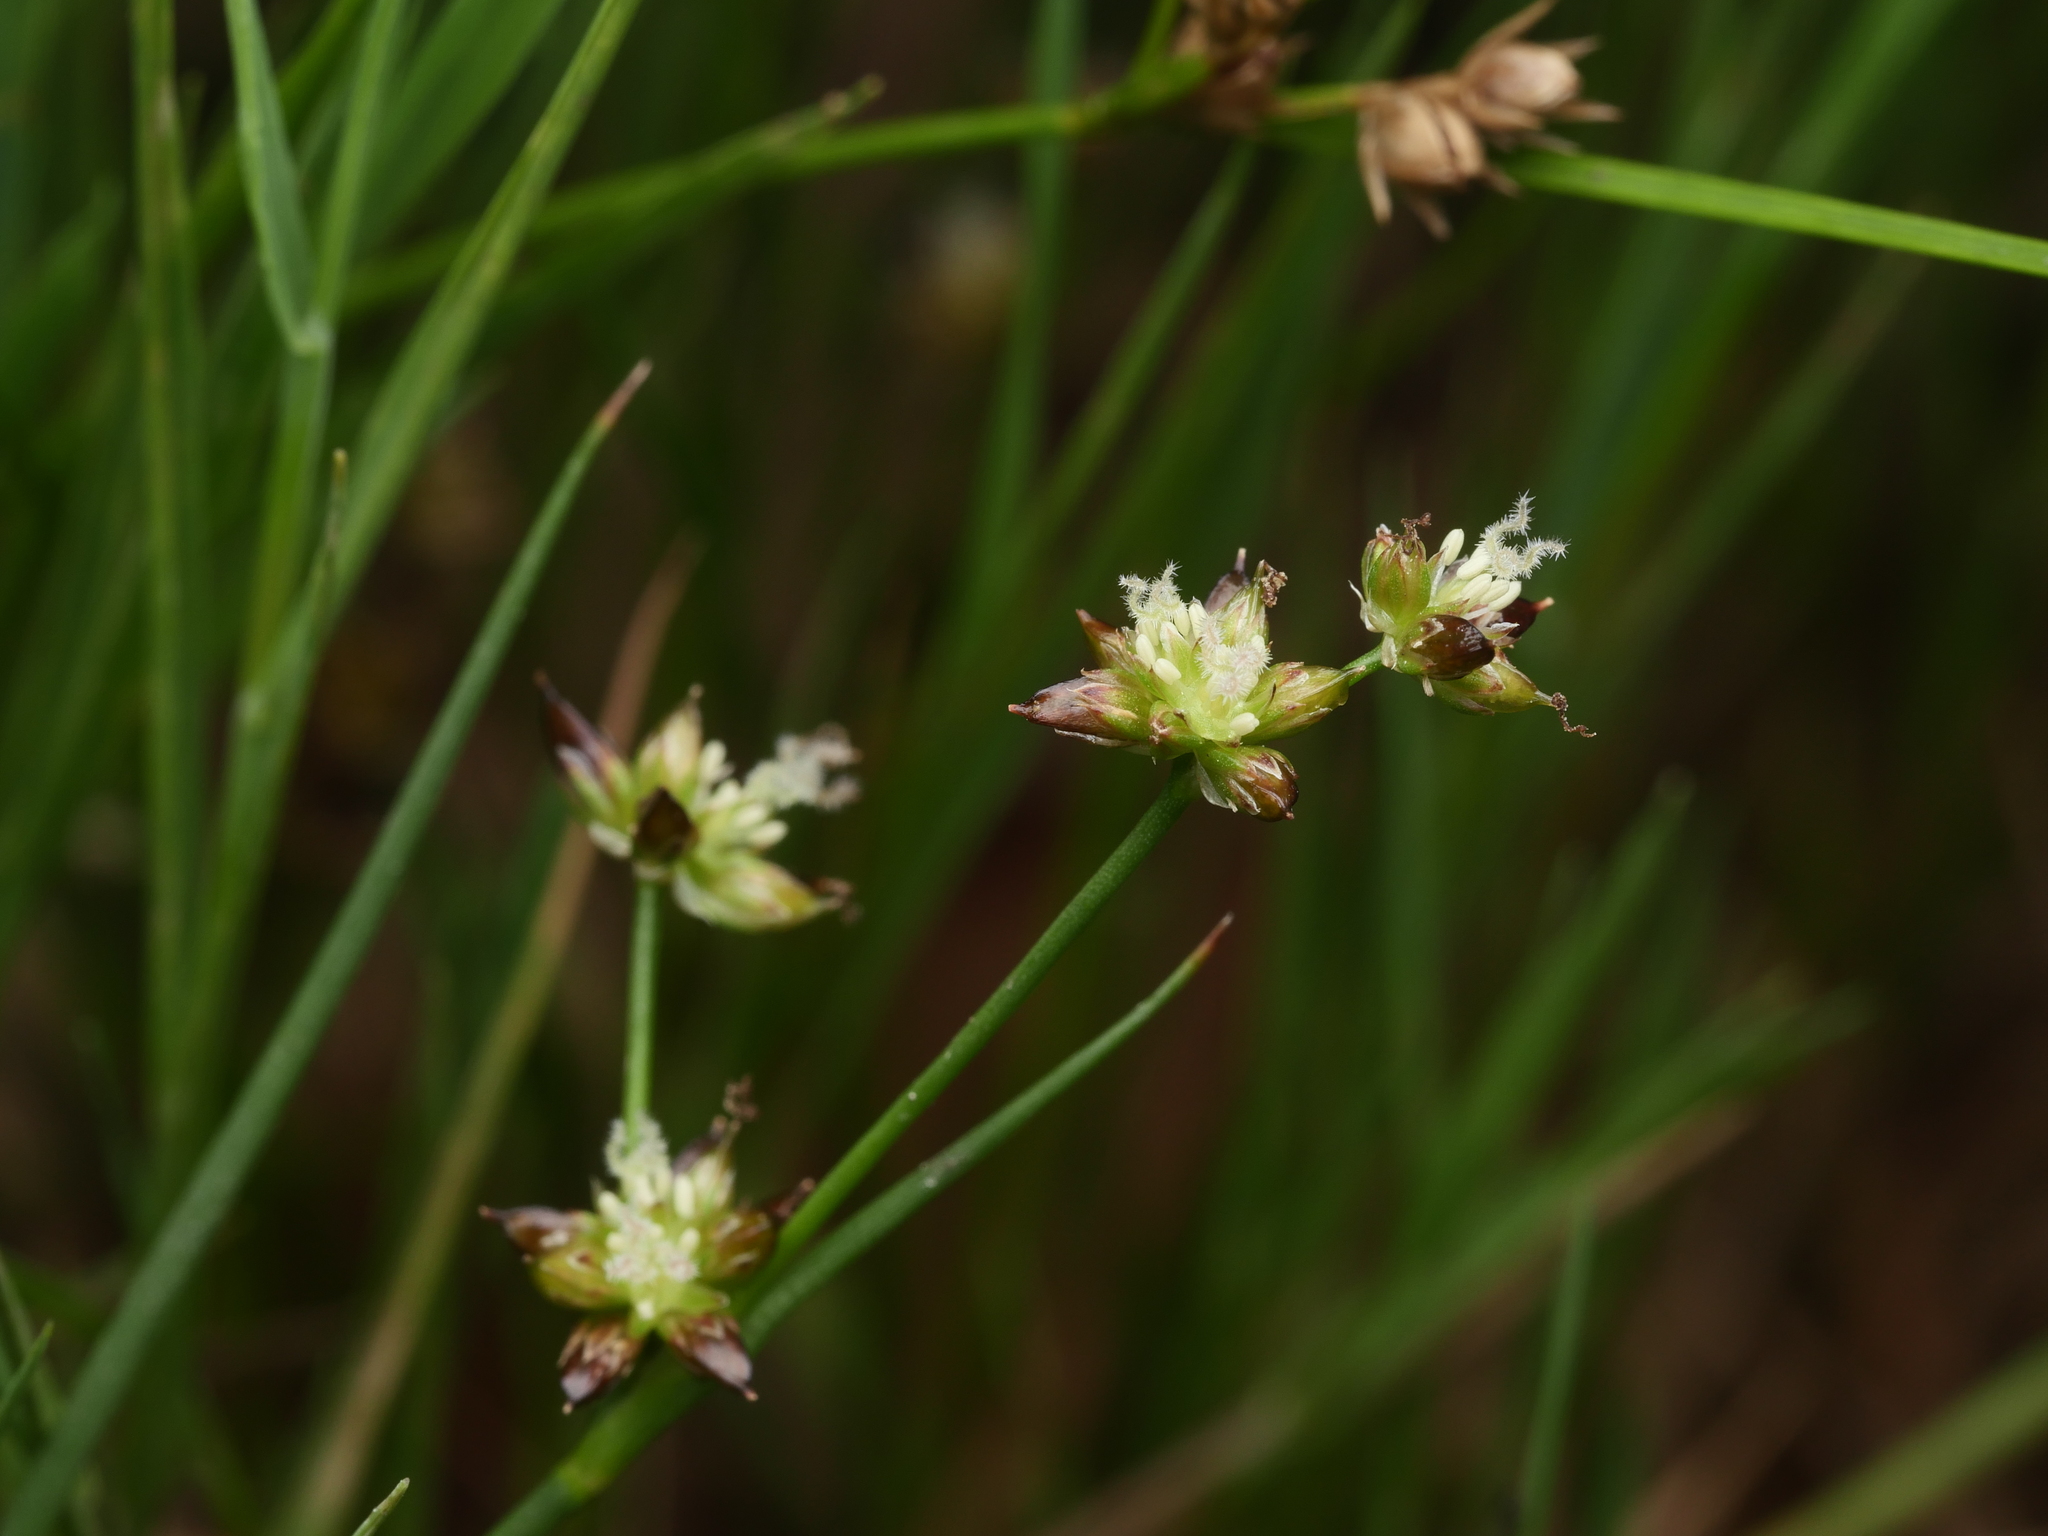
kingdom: Plantae
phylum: Tracheophyta
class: Liliopsida
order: Poales
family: Juncaceae
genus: Juncus
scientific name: Juncus articulatus
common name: Jointed rush
